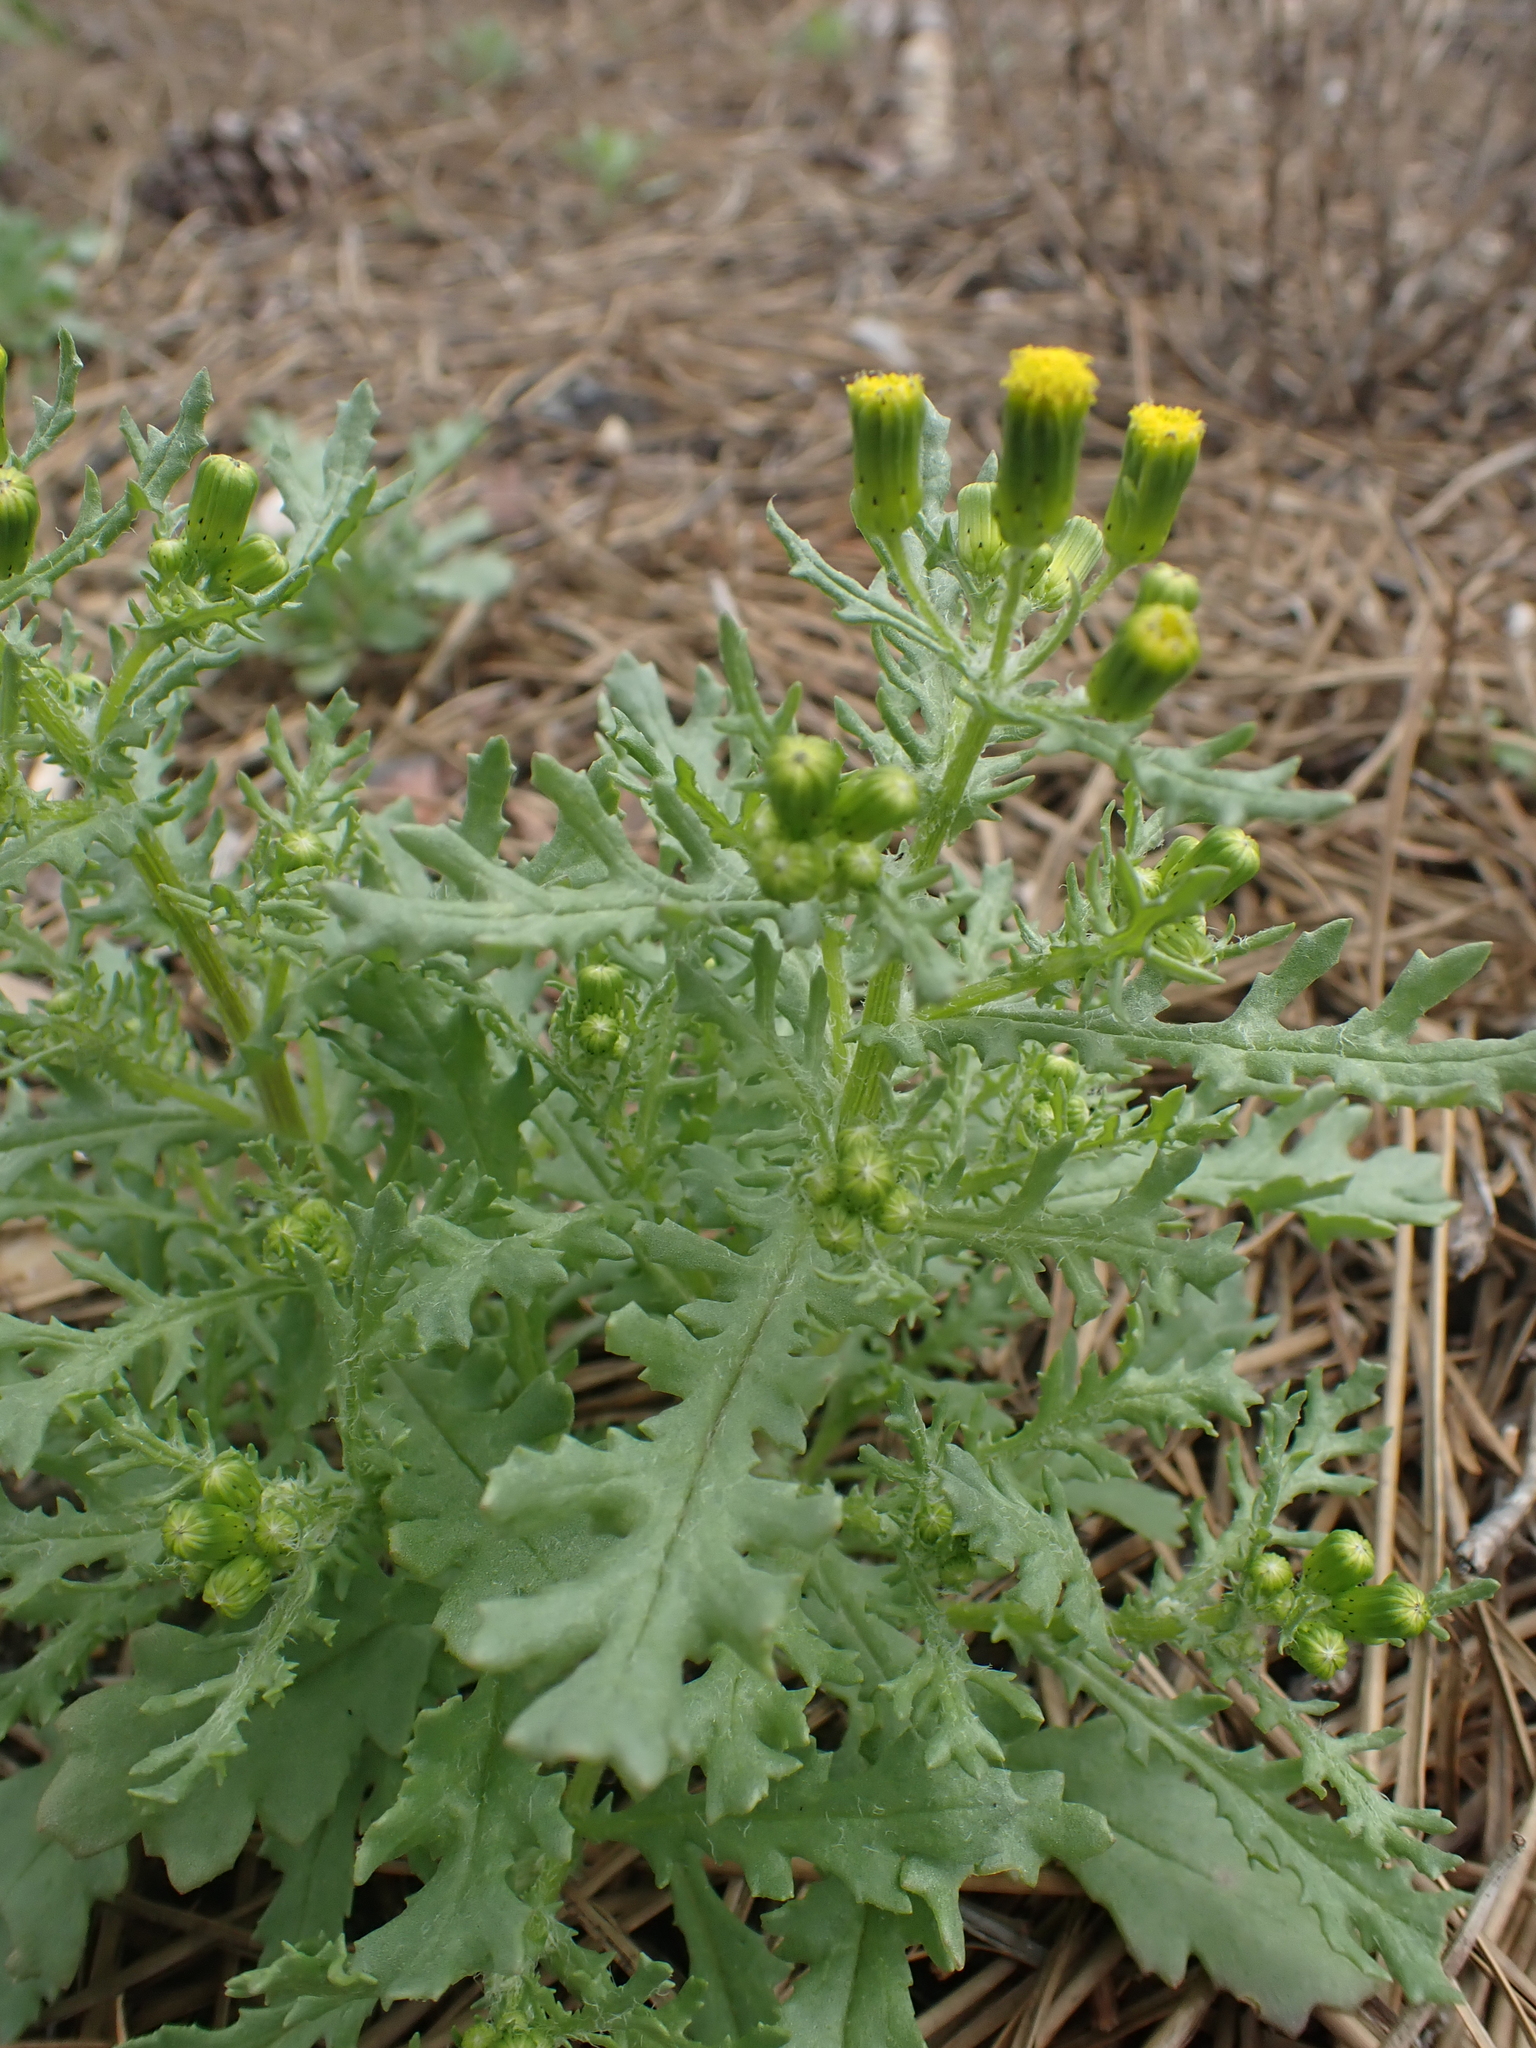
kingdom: Plantae
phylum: Tracheophyta
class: Magnoliopsida
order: Asterales
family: Asteraceae
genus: Senecio
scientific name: Senecio vulgaris
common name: Old-man-in-the-spring
